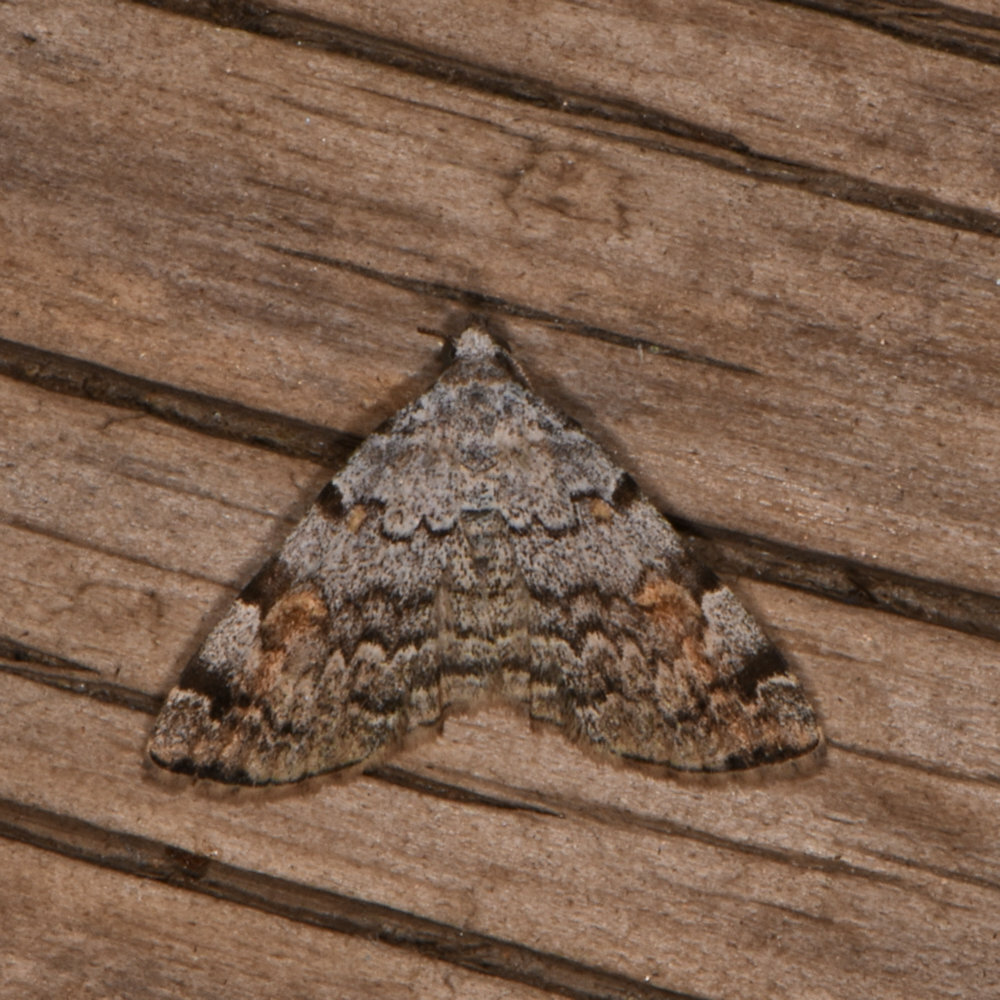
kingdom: Animalia
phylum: Arthropoda
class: Insecta
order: Lepidoptera
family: Erebidae
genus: Idia
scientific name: Idia americalis
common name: American idia moth
